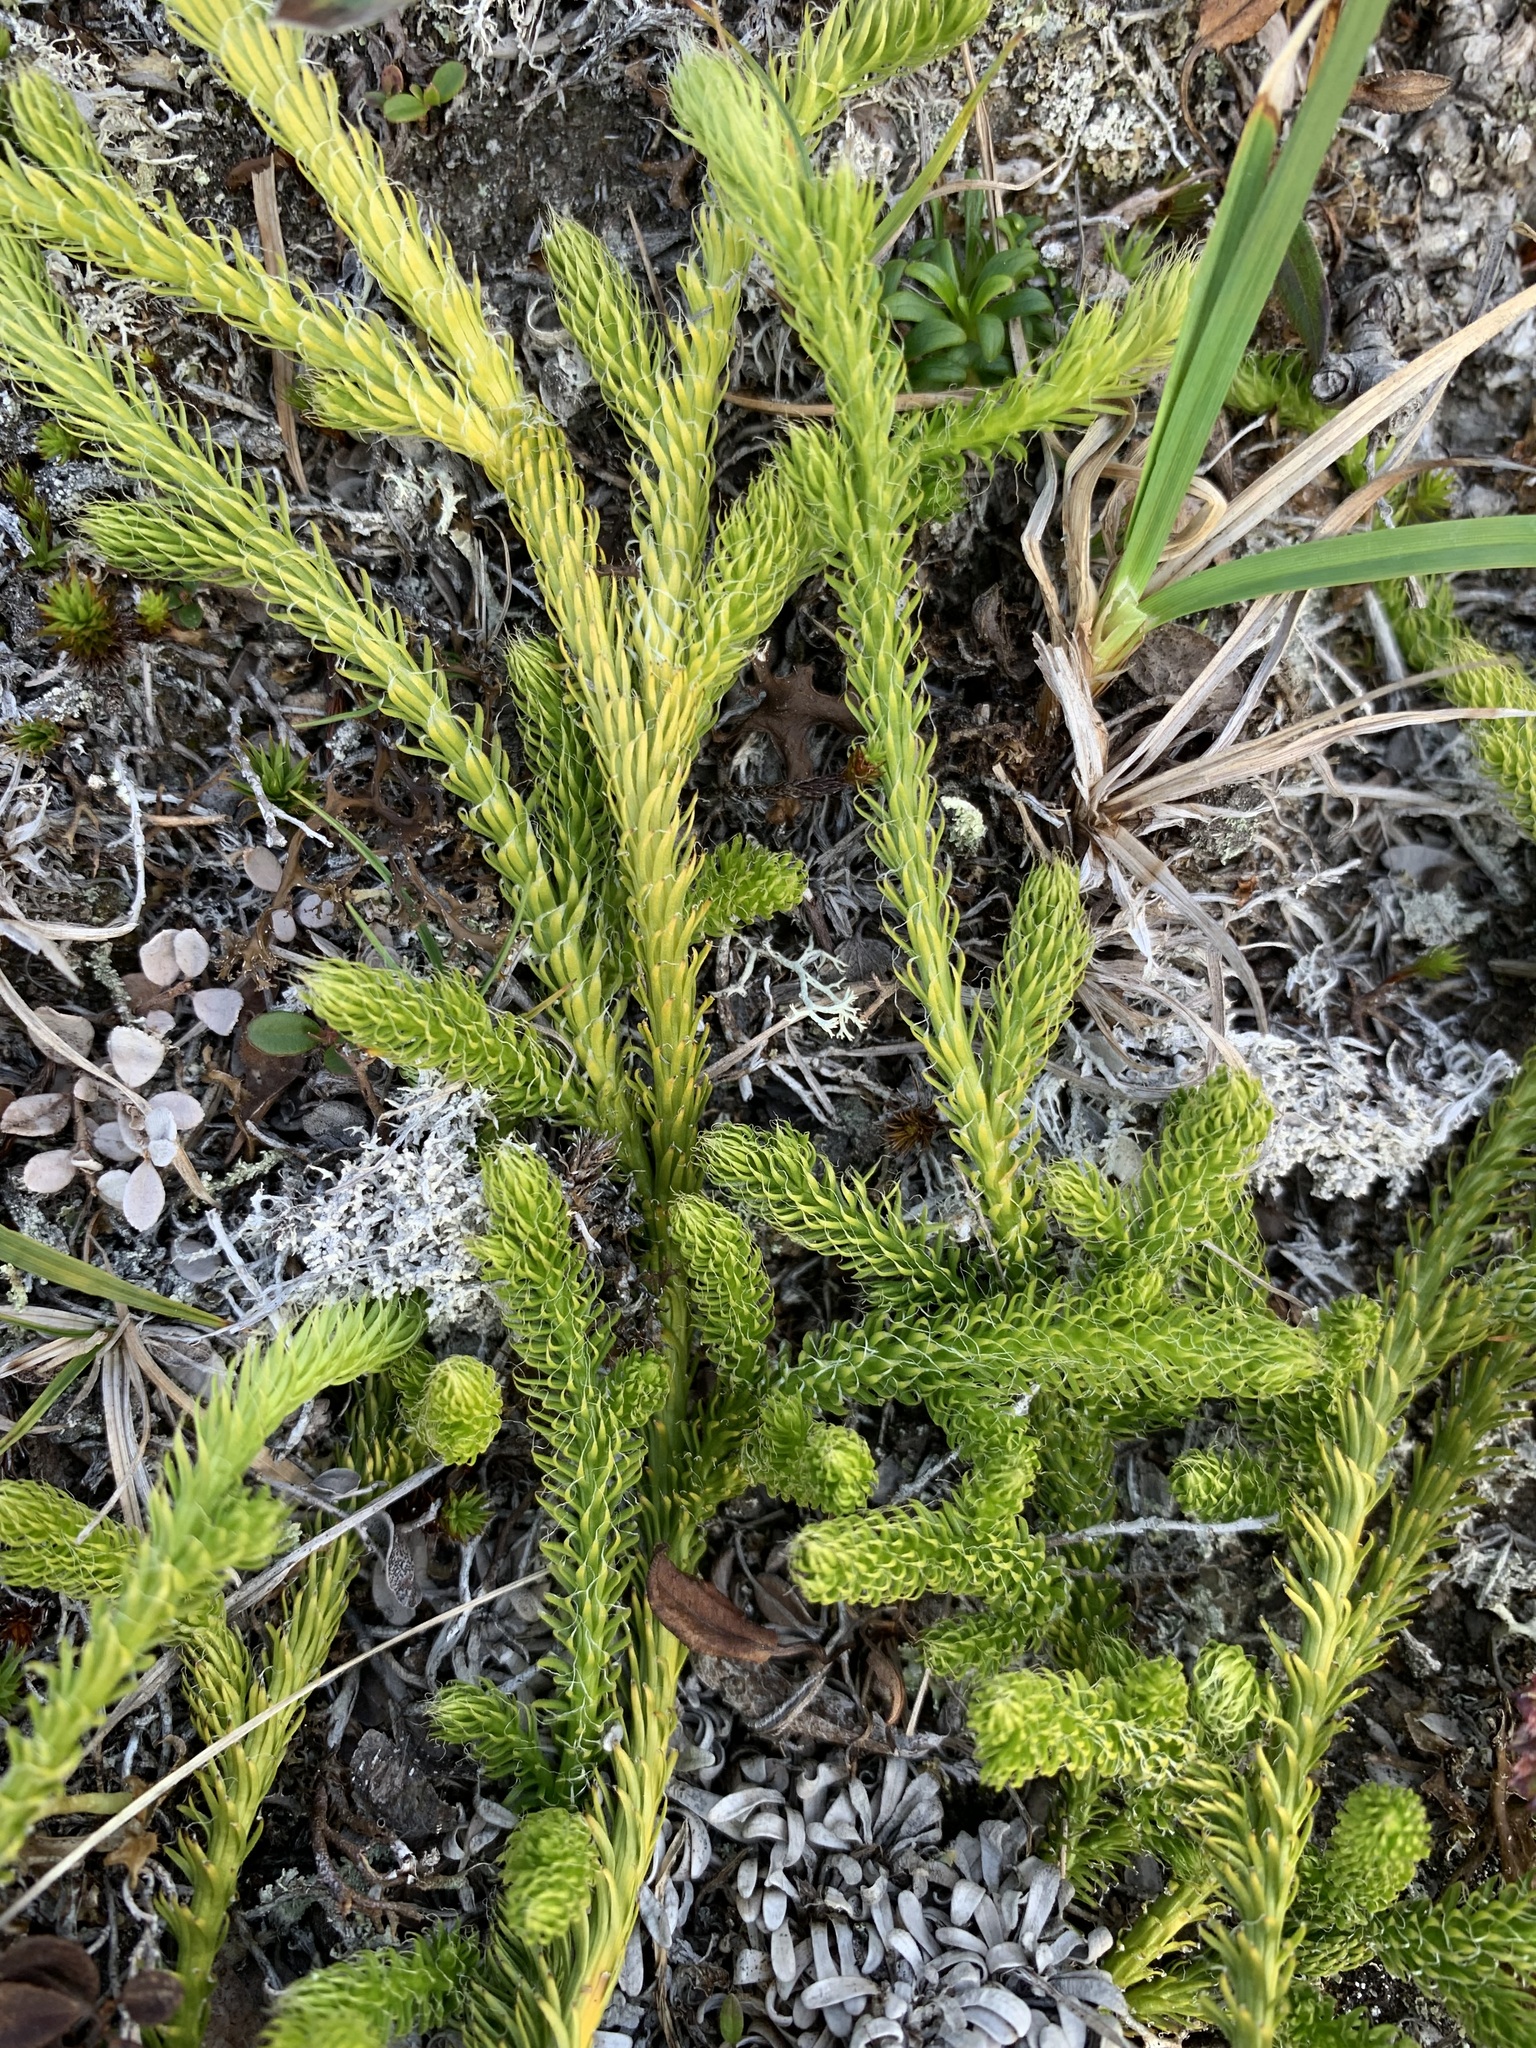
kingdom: Plantae
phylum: Tracheophyta
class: Lycopodiopsida
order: Lycopodiales
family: Lycopodiaceae
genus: Lycopodium
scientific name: Lycopodium lagopus
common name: One-cone clubmoss
